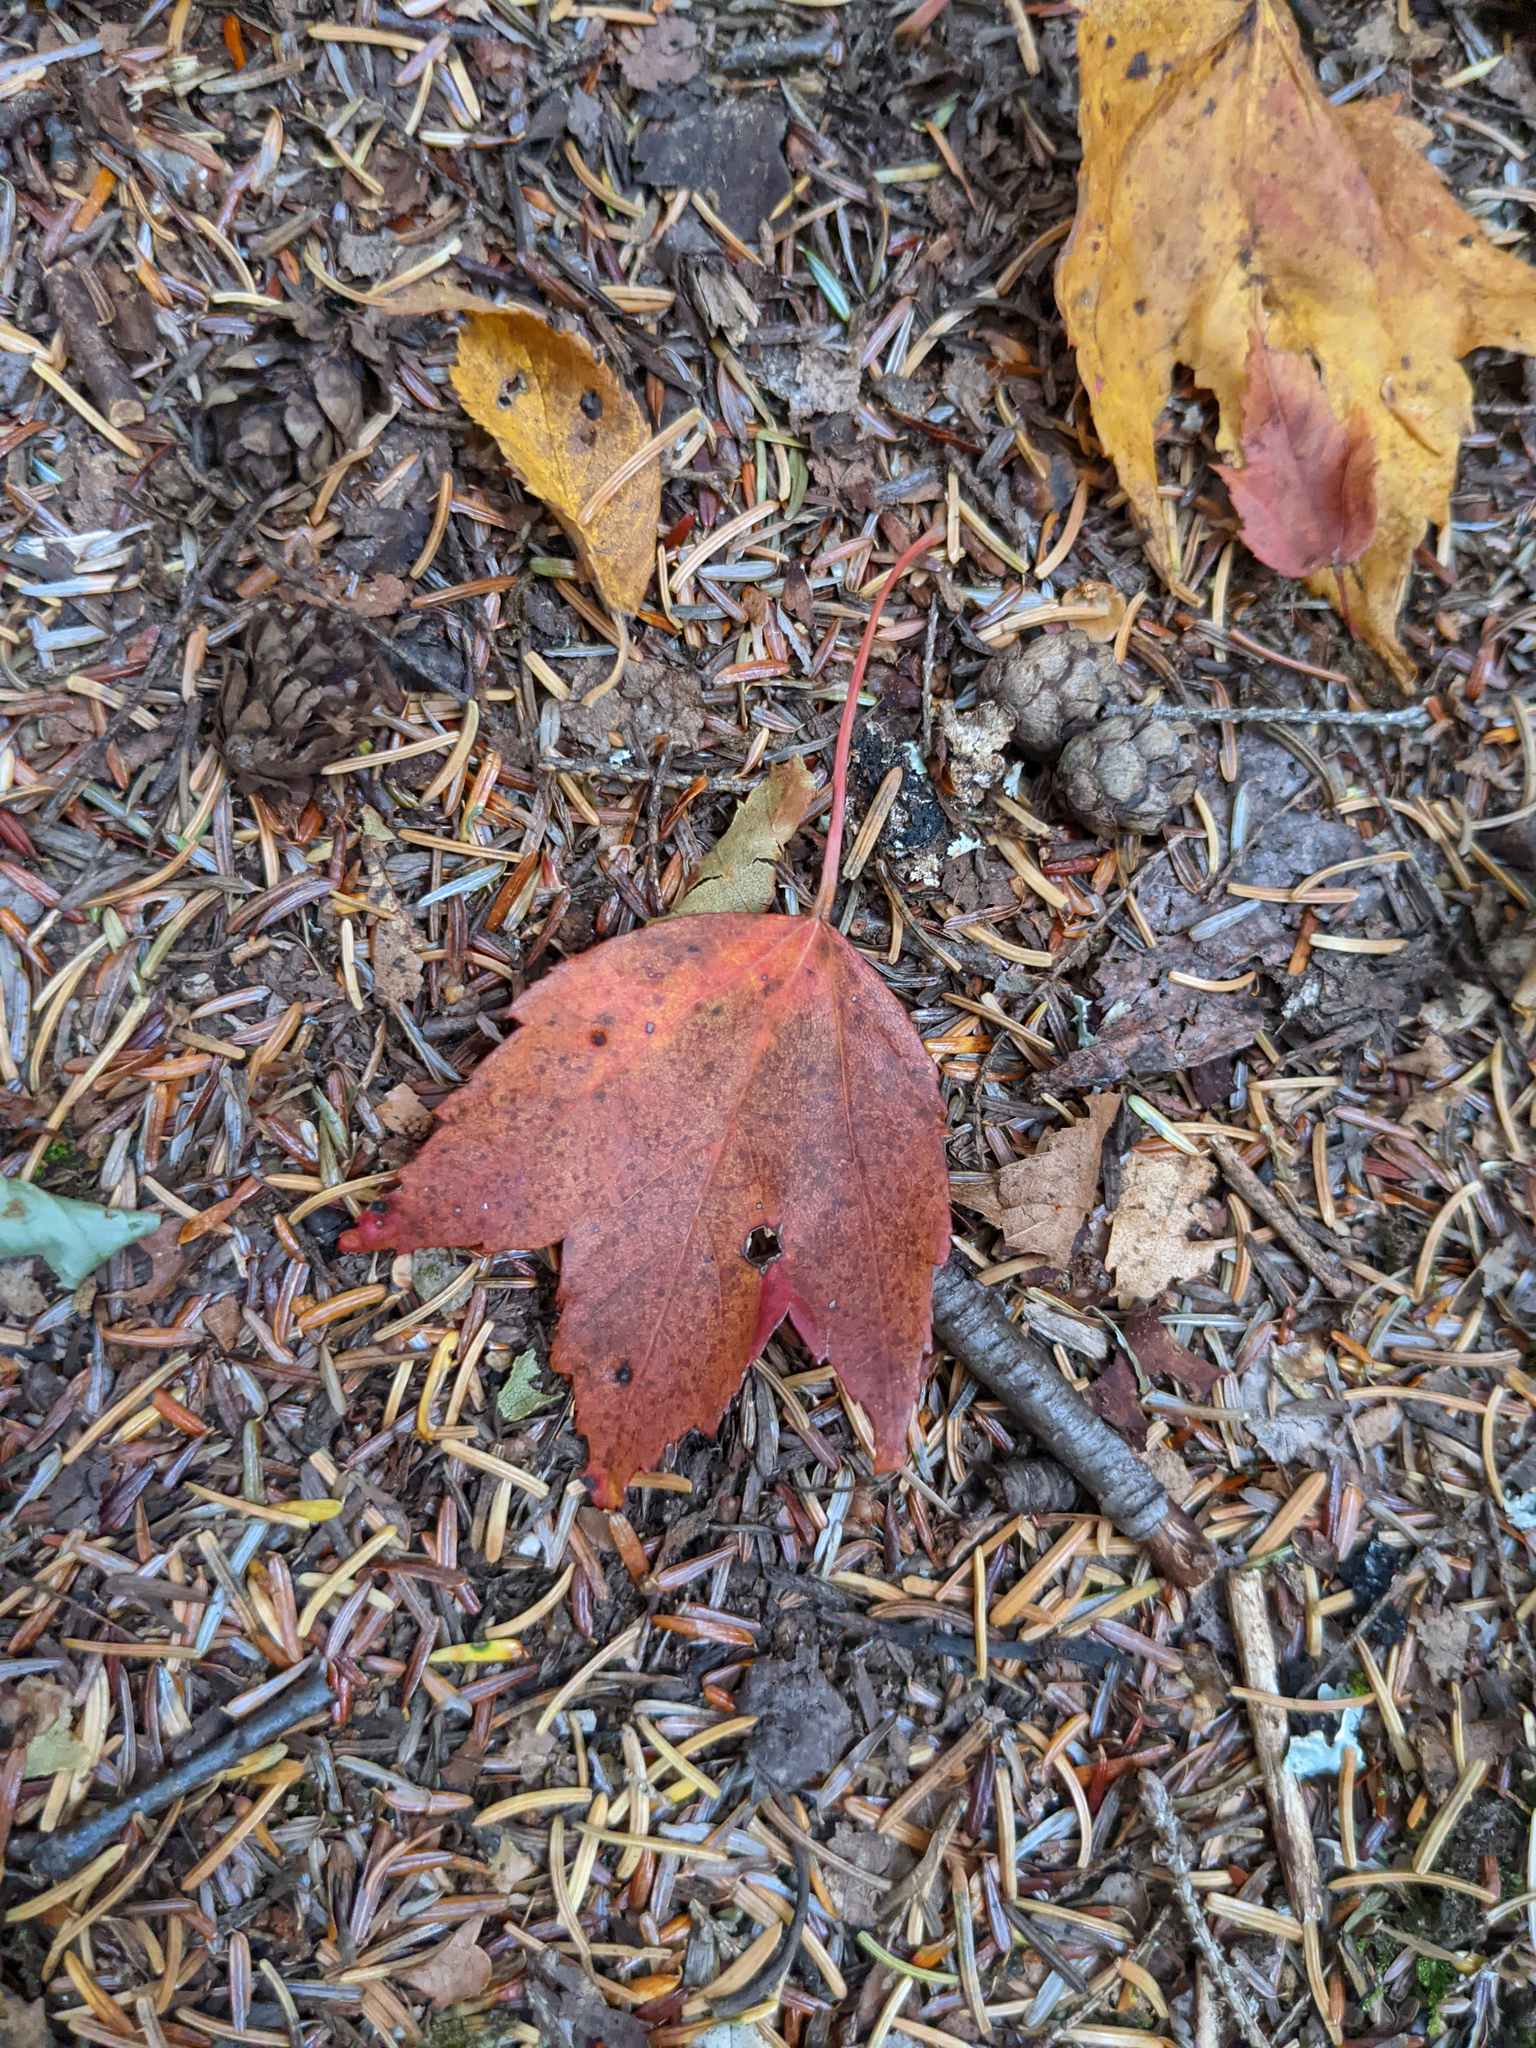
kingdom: Plantae
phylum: Tracheophyta
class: Magnoliopsida
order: Sapindales
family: Sapindaceae
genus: Acer
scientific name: Acer rubrum
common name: Red maple
